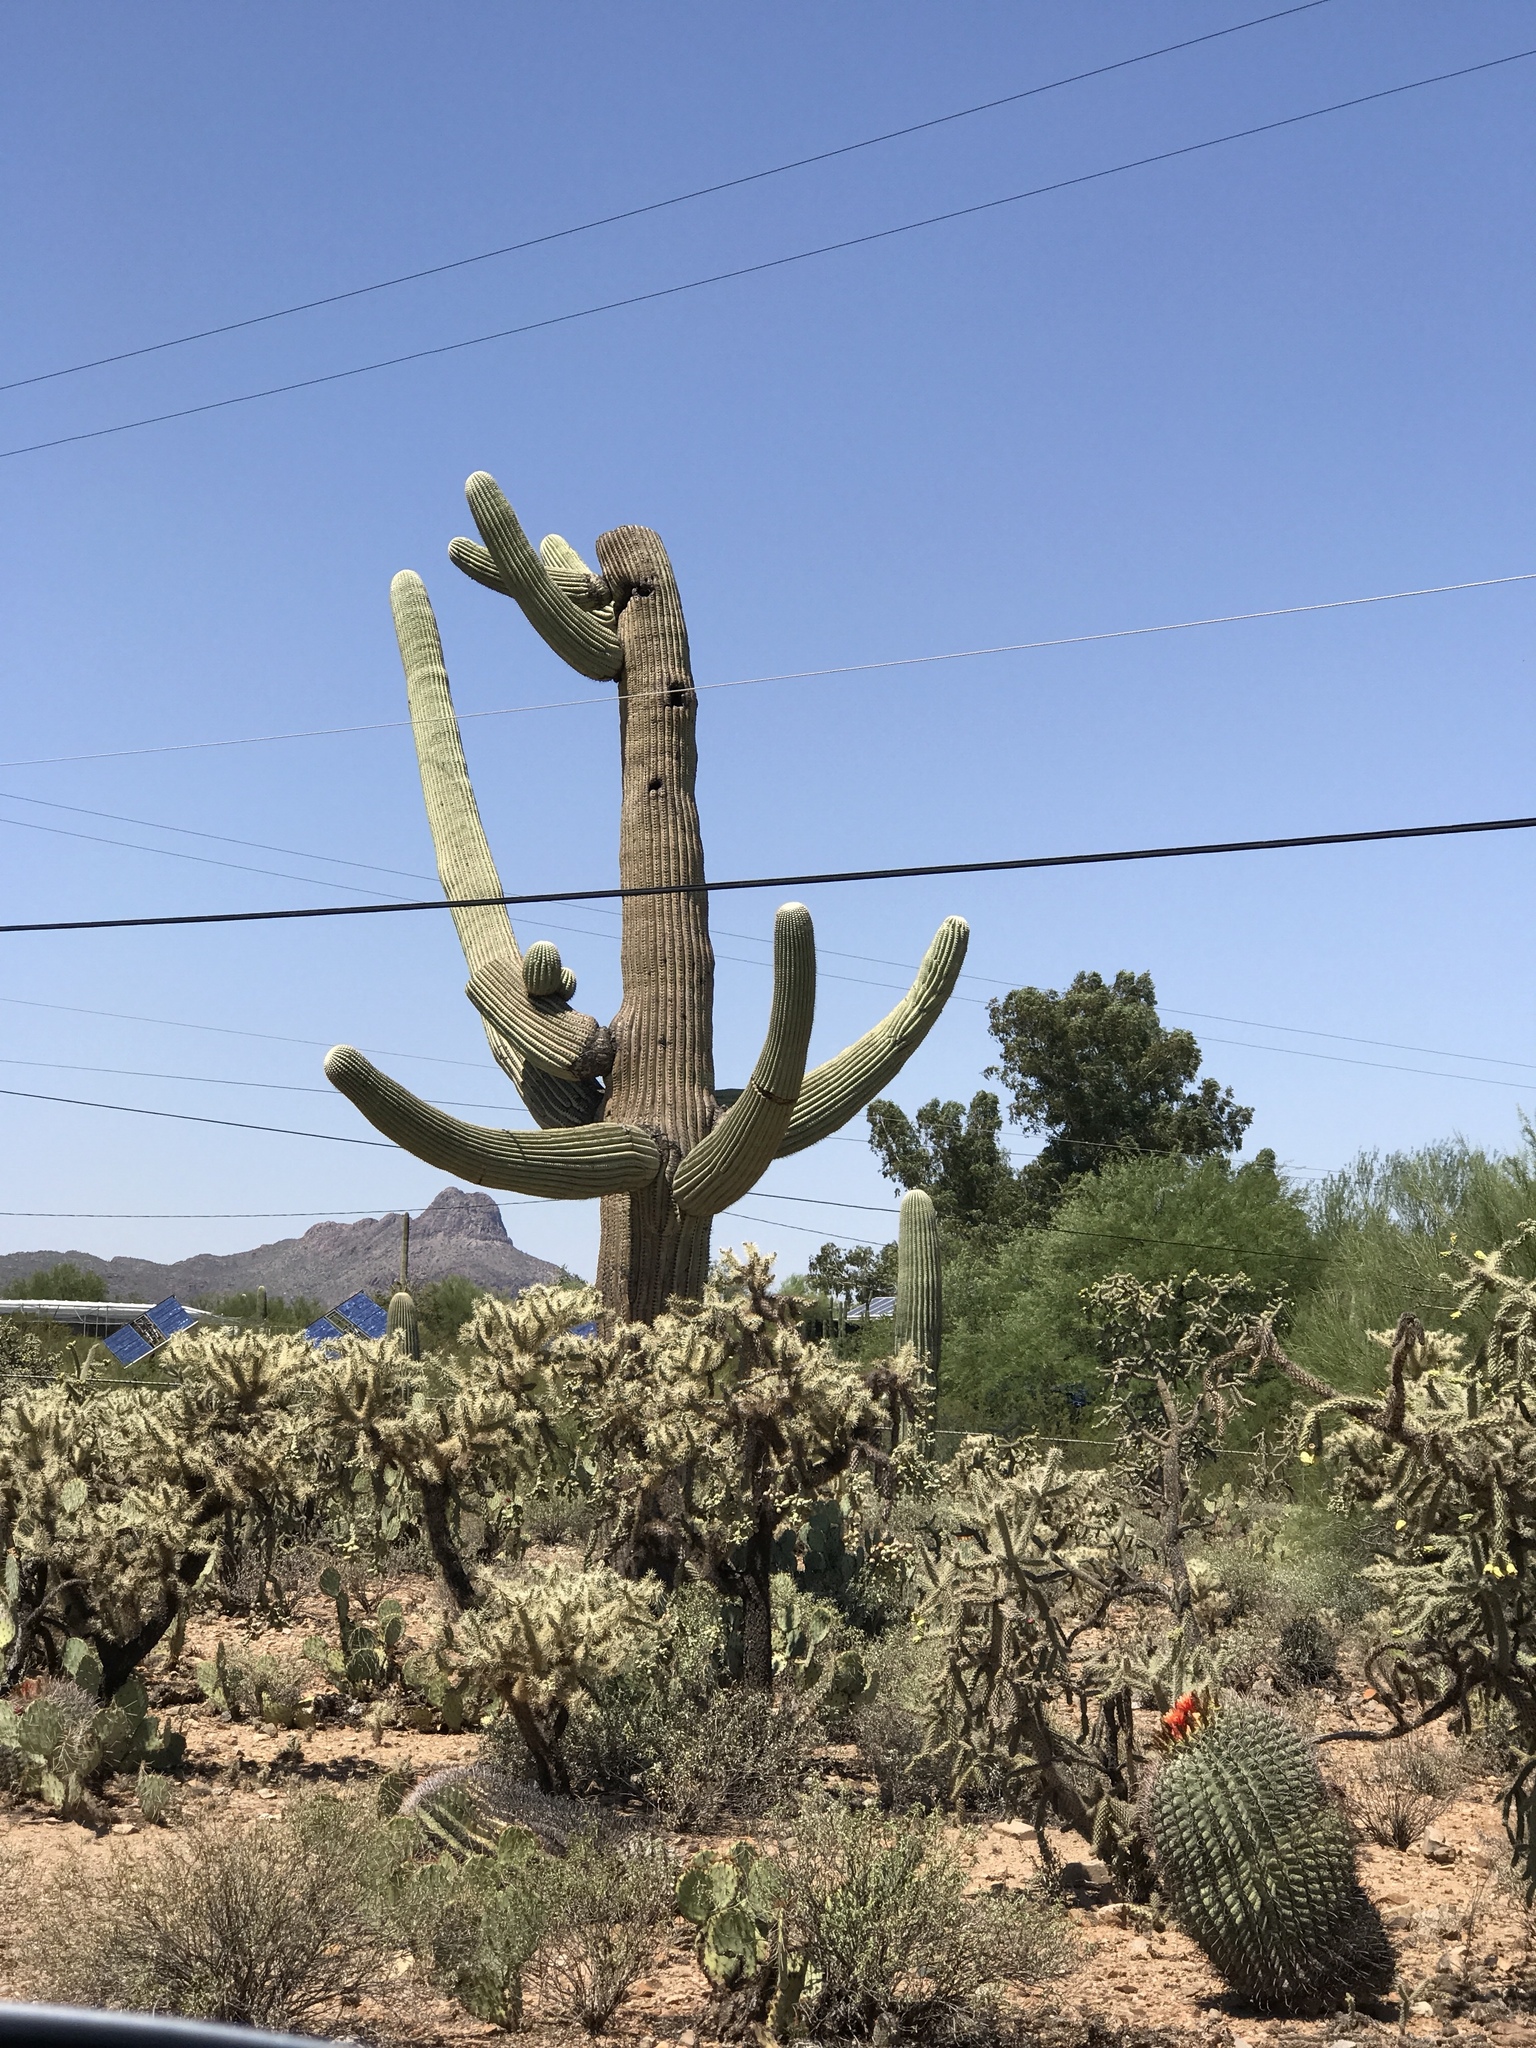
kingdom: Plantae
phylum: Tracheophyta
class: Magnoliopsida
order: Caryophyllales
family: Cactaceae
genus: Carnegiea
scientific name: Carnegiea gigantea
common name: Saguaro
